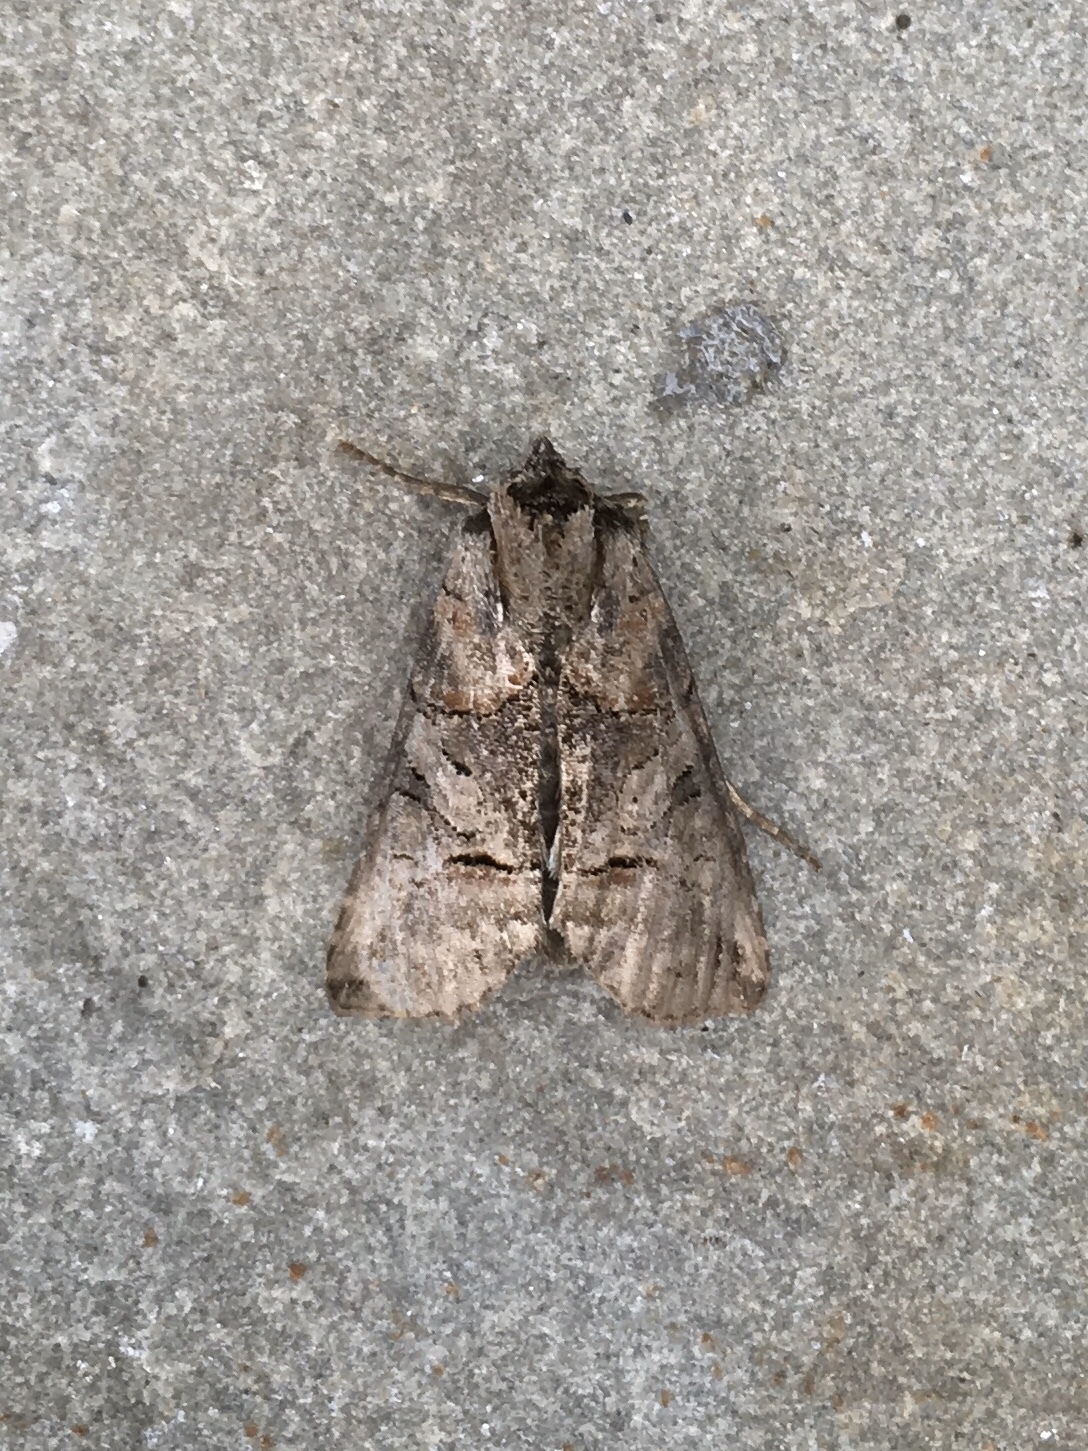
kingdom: Animalia
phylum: Arthropoda
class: Insecta
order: Lepidoptera
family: Noctuidae
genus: Abrostola
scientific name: Abrostola urentis
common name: Spectacled nettle moth
